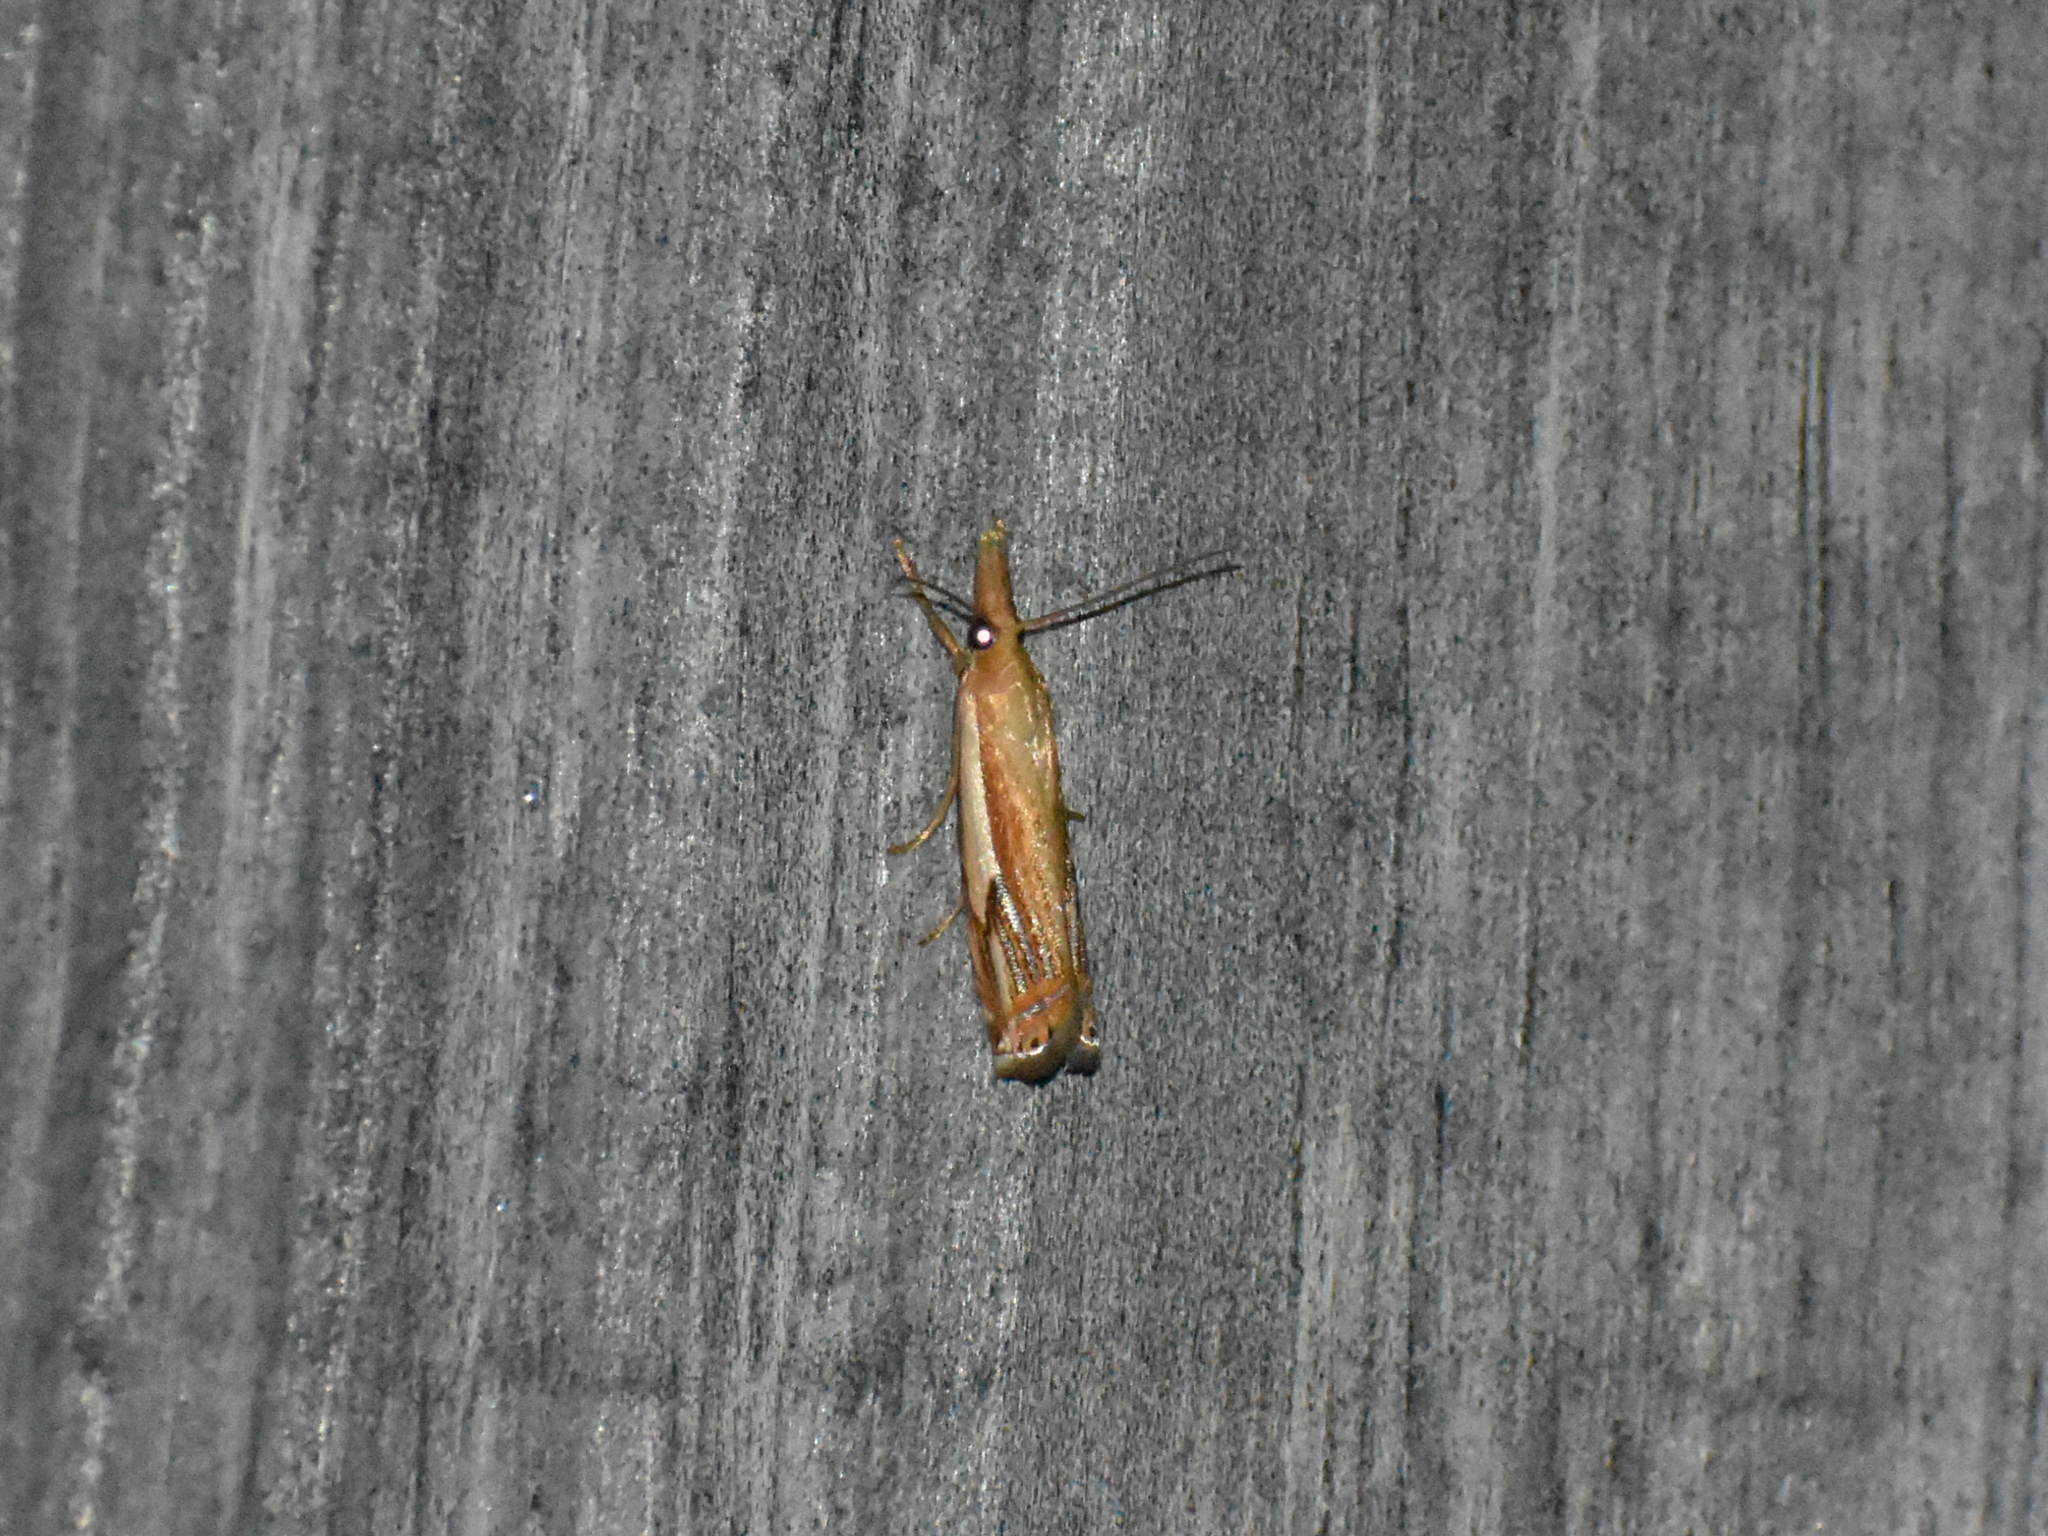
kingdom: Animalia
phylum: Arthropoda
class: Insecta
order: Lepidoptera
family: Crambidae
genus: Crambus
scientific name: Crambus agitatellus
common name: Double-banded grass-veneer
